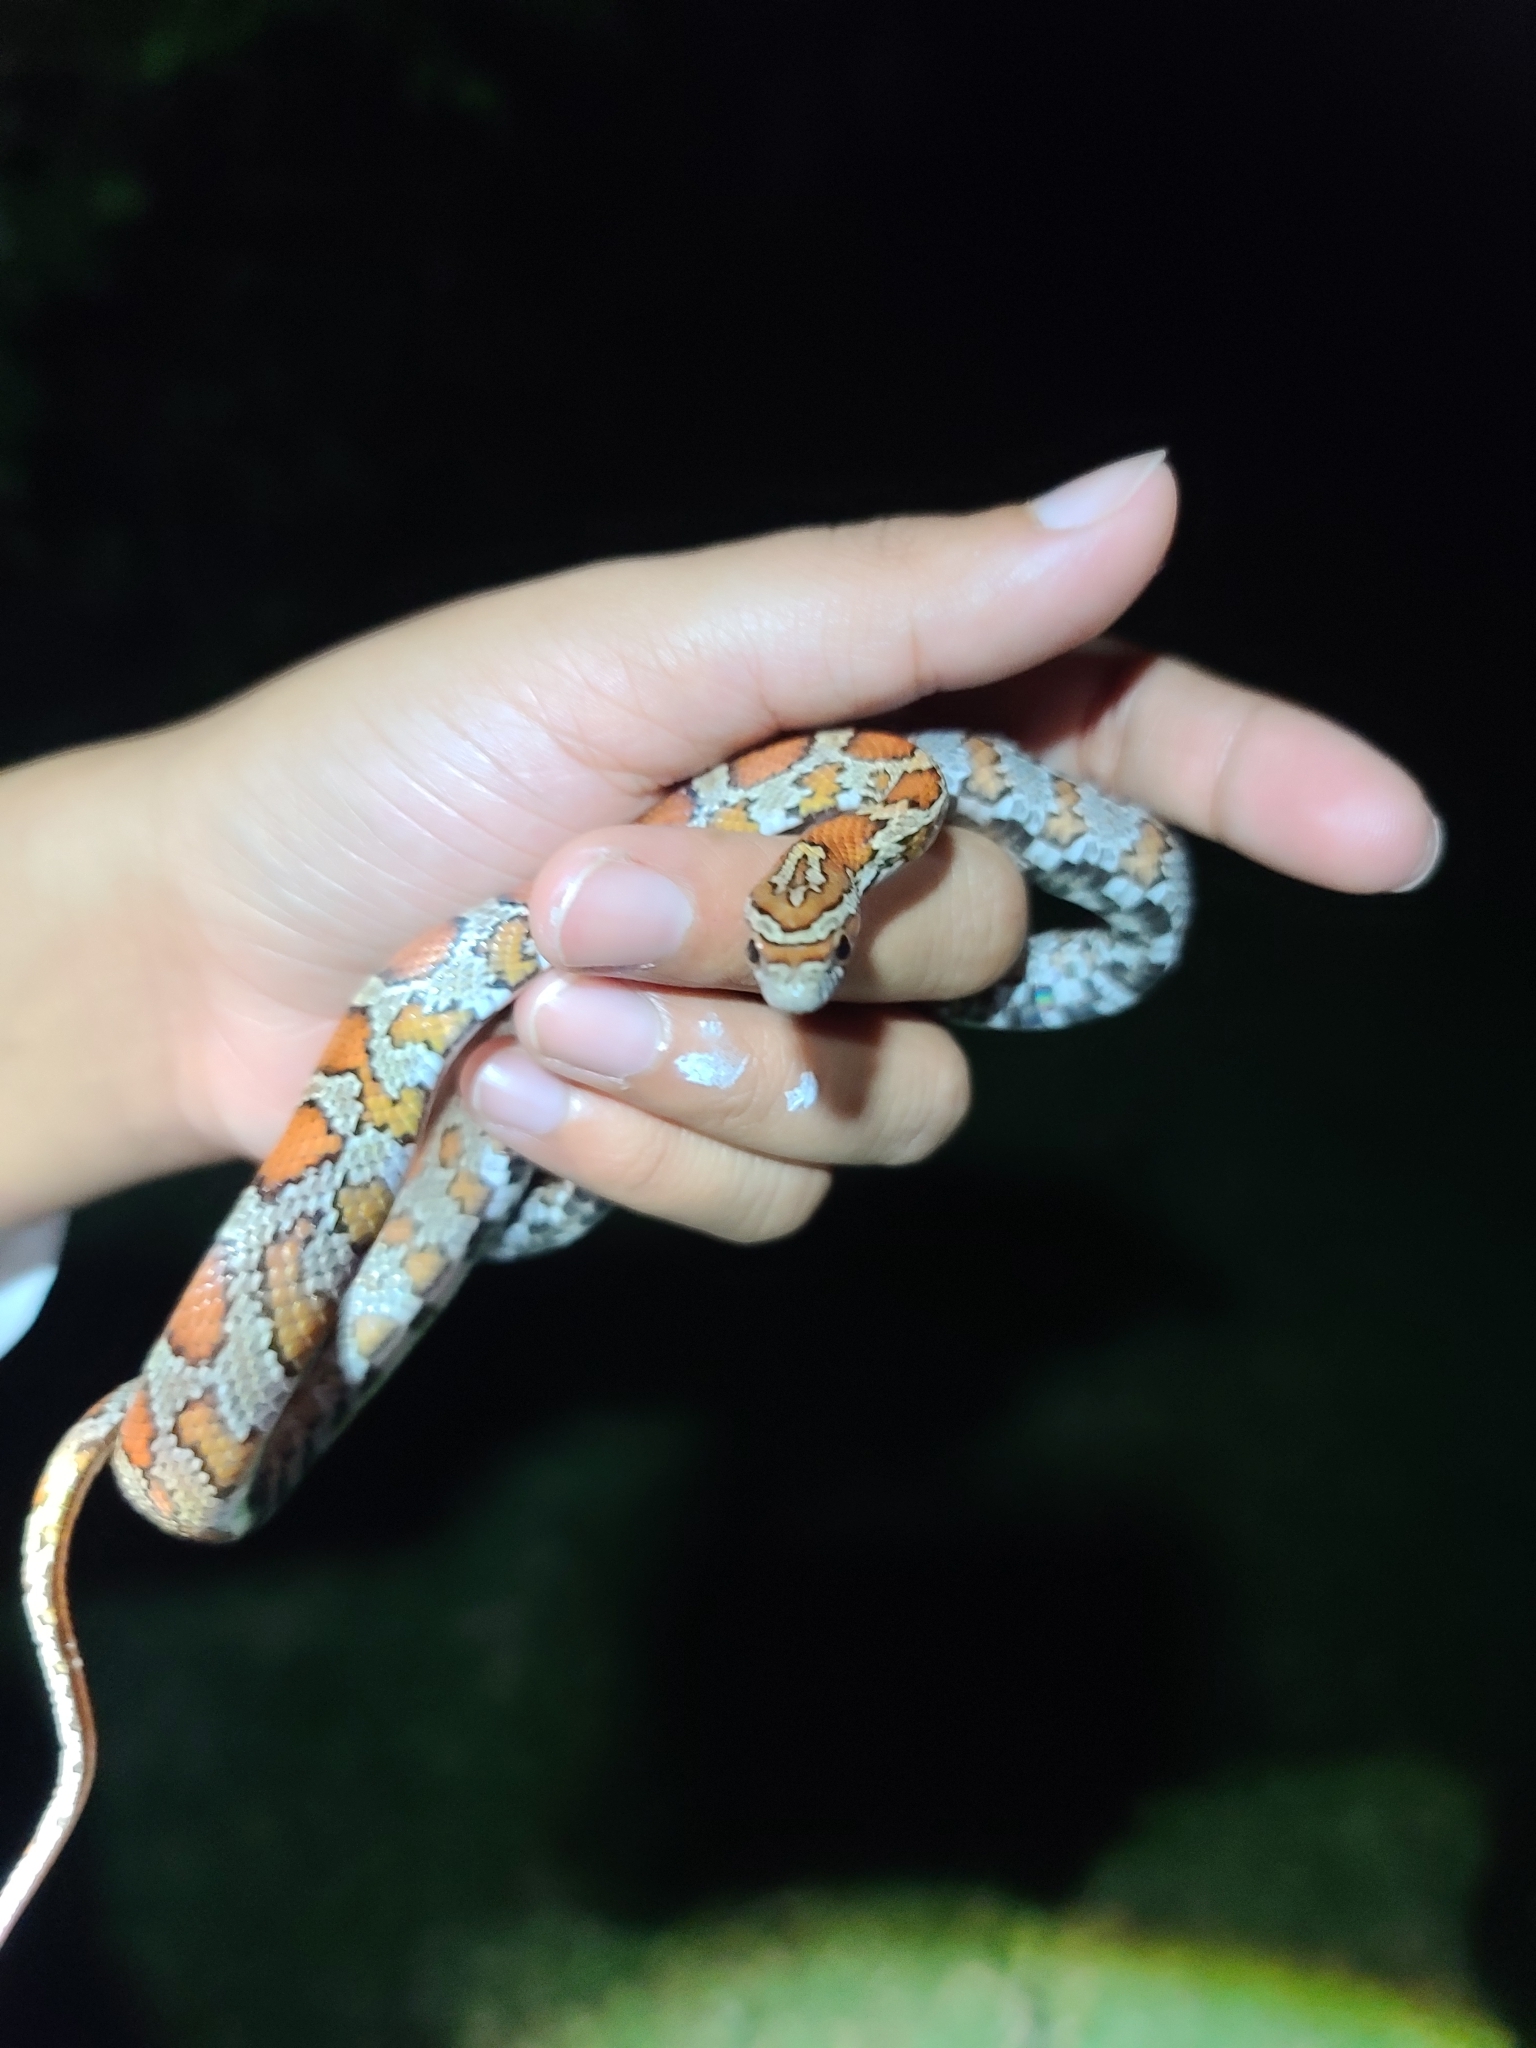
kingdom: Animalia
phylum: Chordata
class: Squamata
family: Colubridae
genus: Pantherophis
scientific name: Pantherophis guttatus
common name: Red cornsnake
